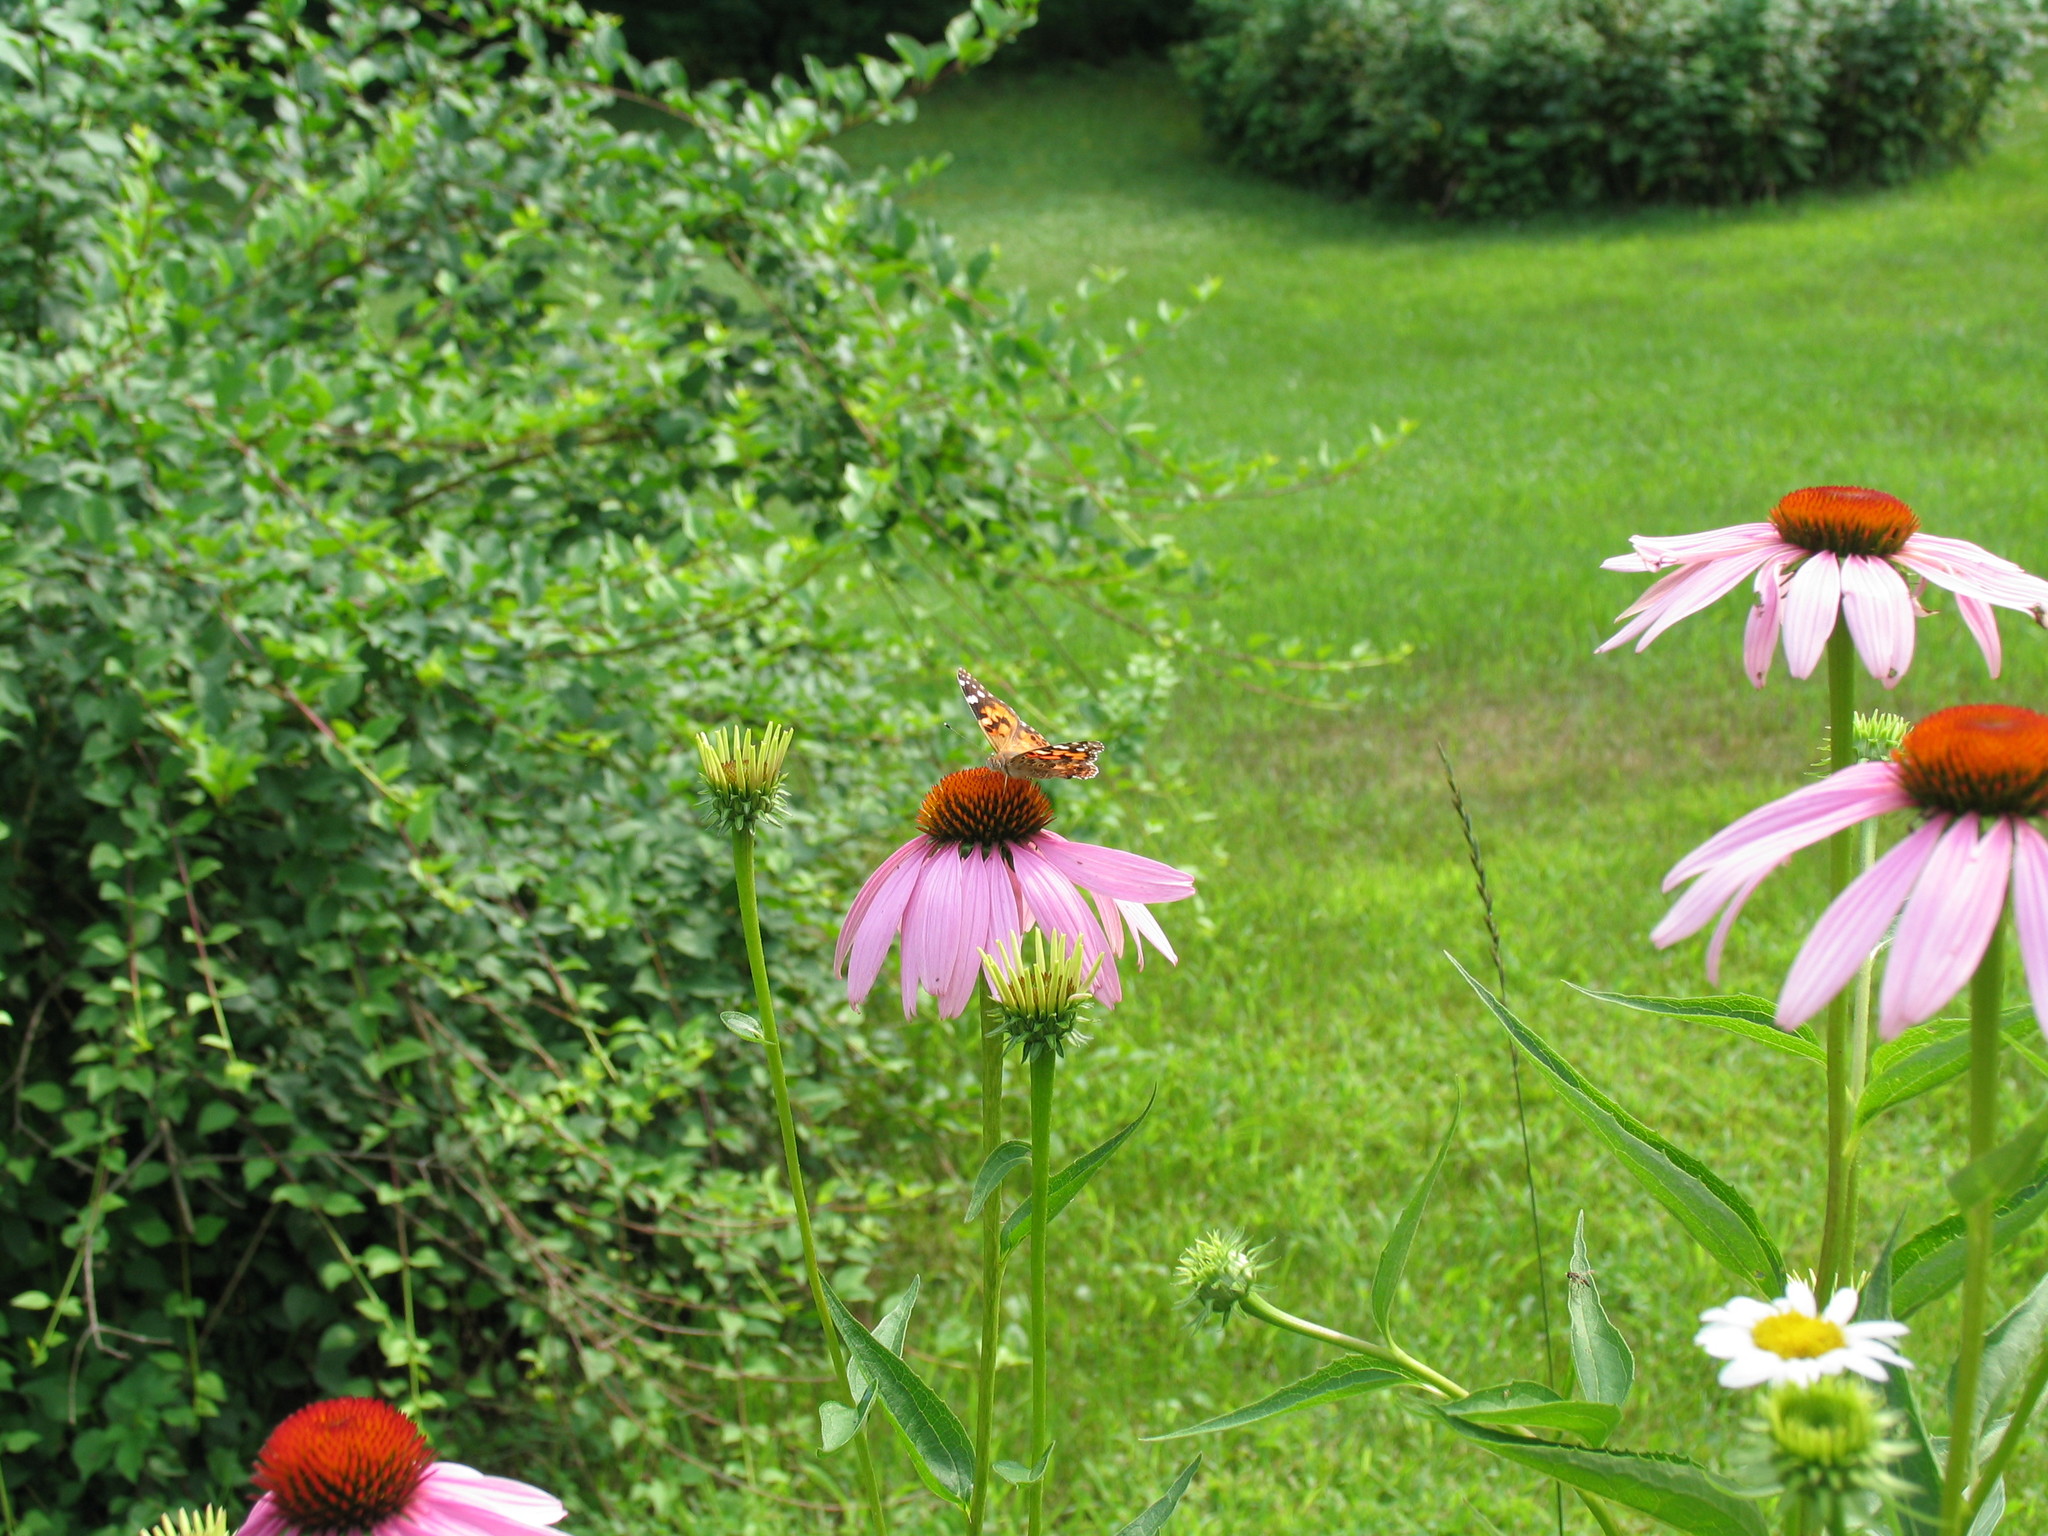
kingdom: Animalia
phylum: Arthropoda
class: Insecta
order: Lepidoptera
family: Nymphalidae
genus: Vanessa
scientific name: Vanessa cardui
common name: Painted lady
